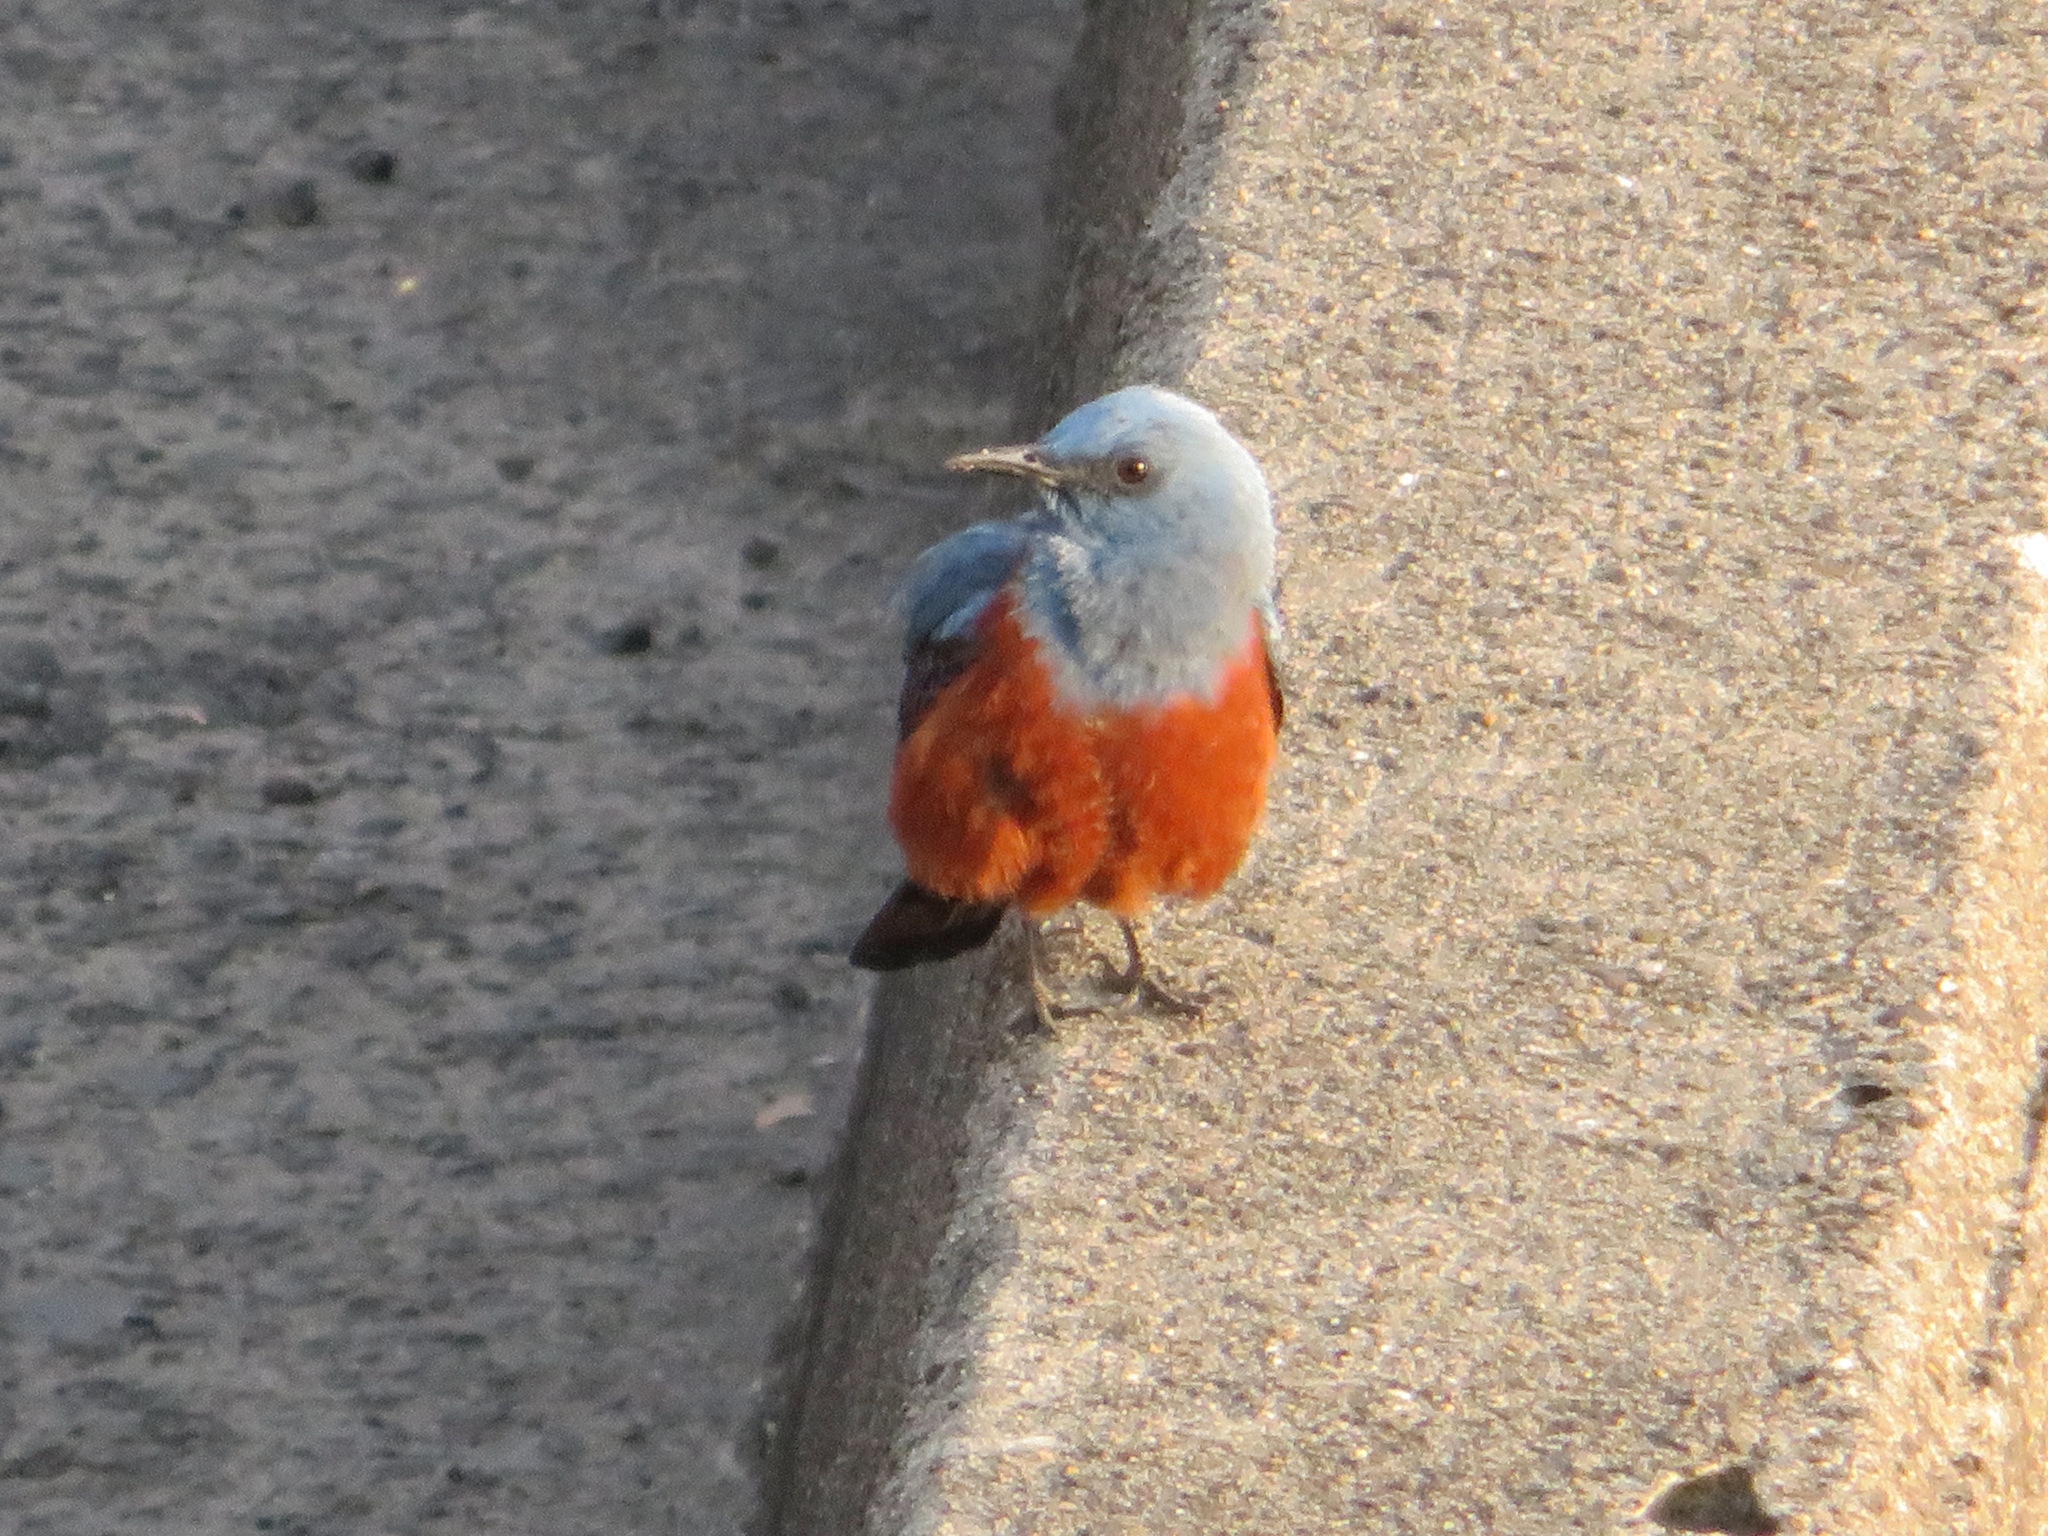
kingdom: Animalia
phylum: Chordata
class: Aves
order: Passeriformes
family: Muscicapidae
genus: Monticola
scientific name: Monticola solitarius
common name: Blue rock thrush
